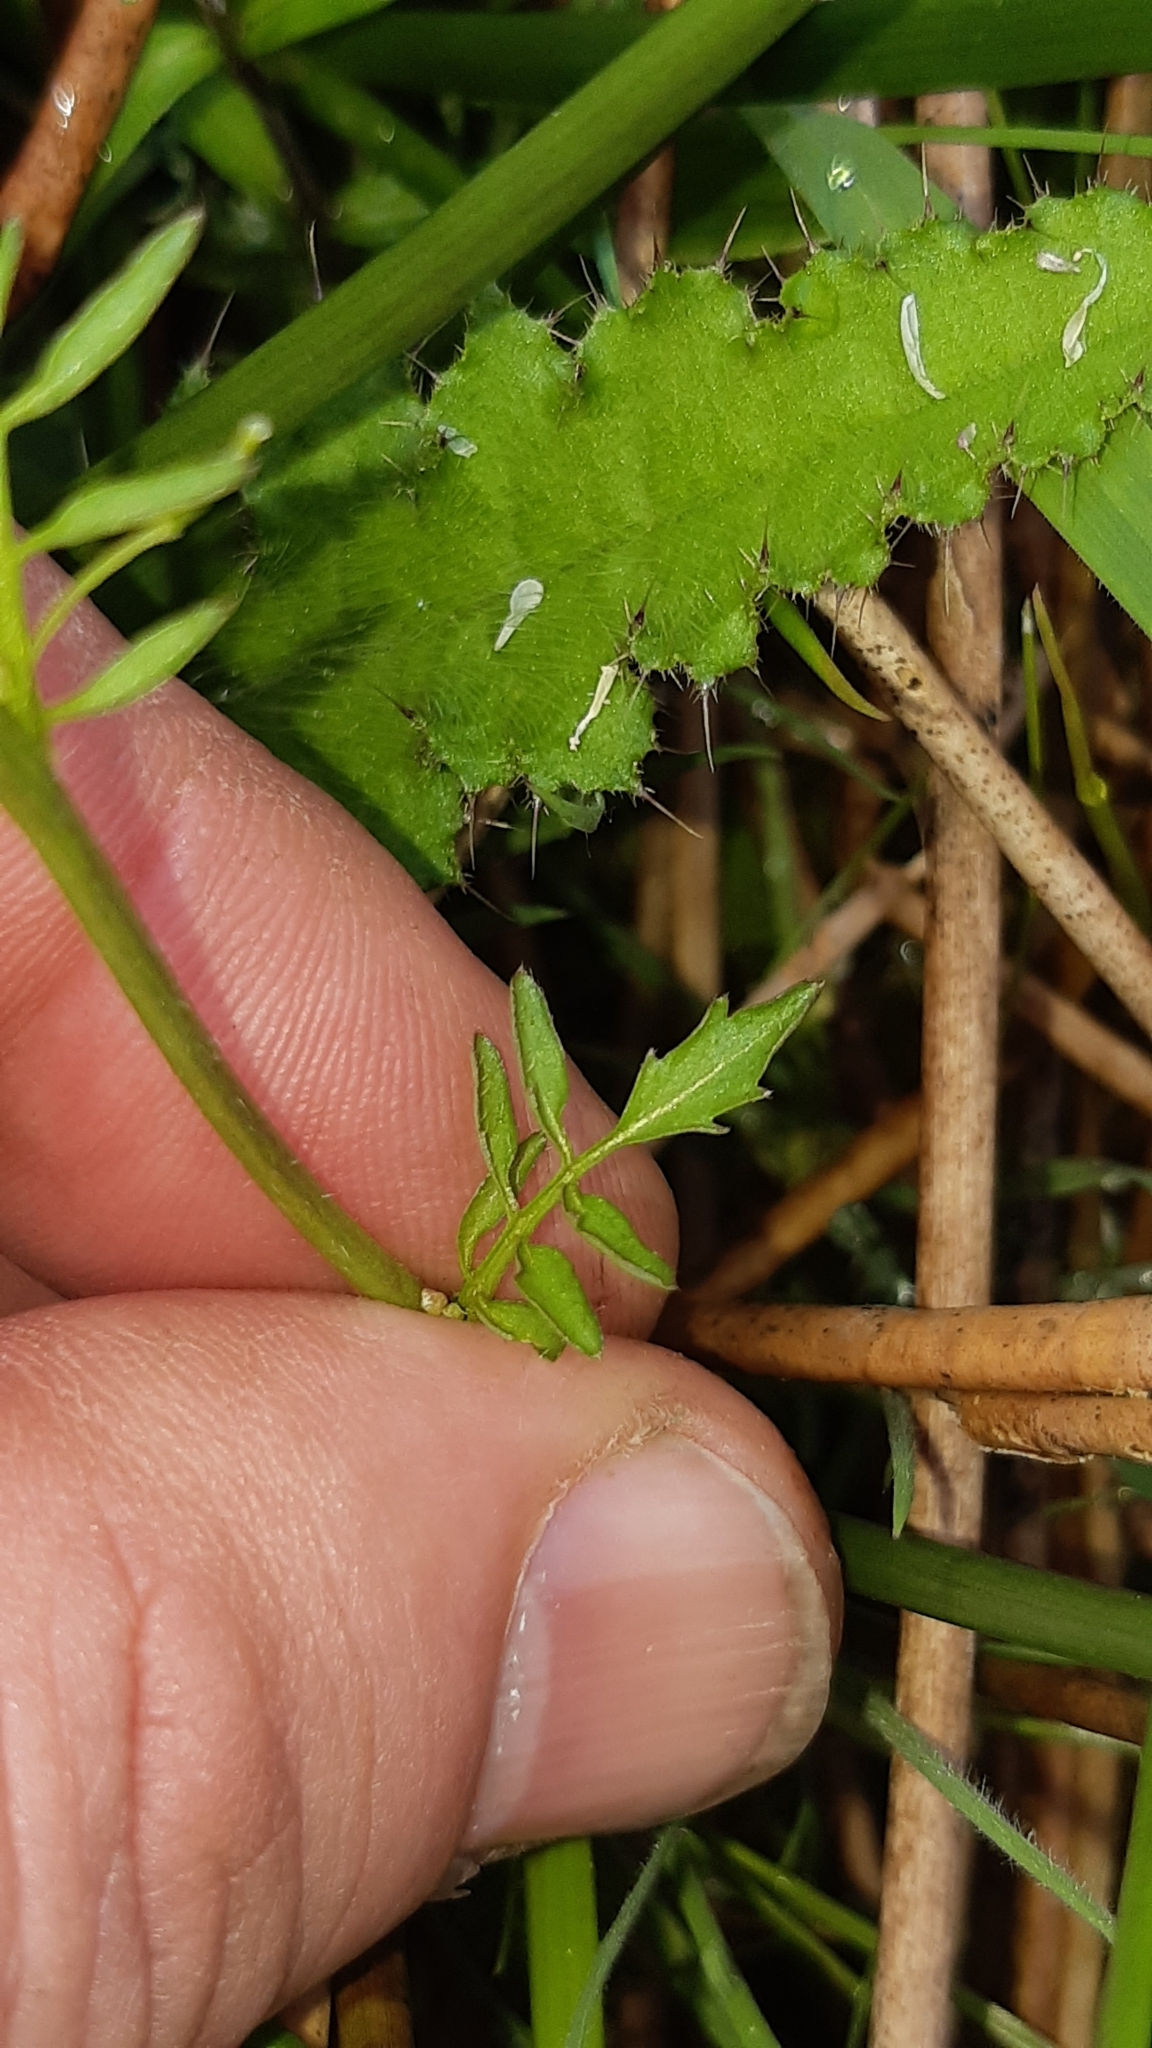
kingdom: Plantae
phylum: Tracheophyta
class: Magnoliopsida
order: Brassicales
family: Brassicaceae
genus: Cardamine
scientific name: Cardamine flexuosa
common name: Woodland bittercress
